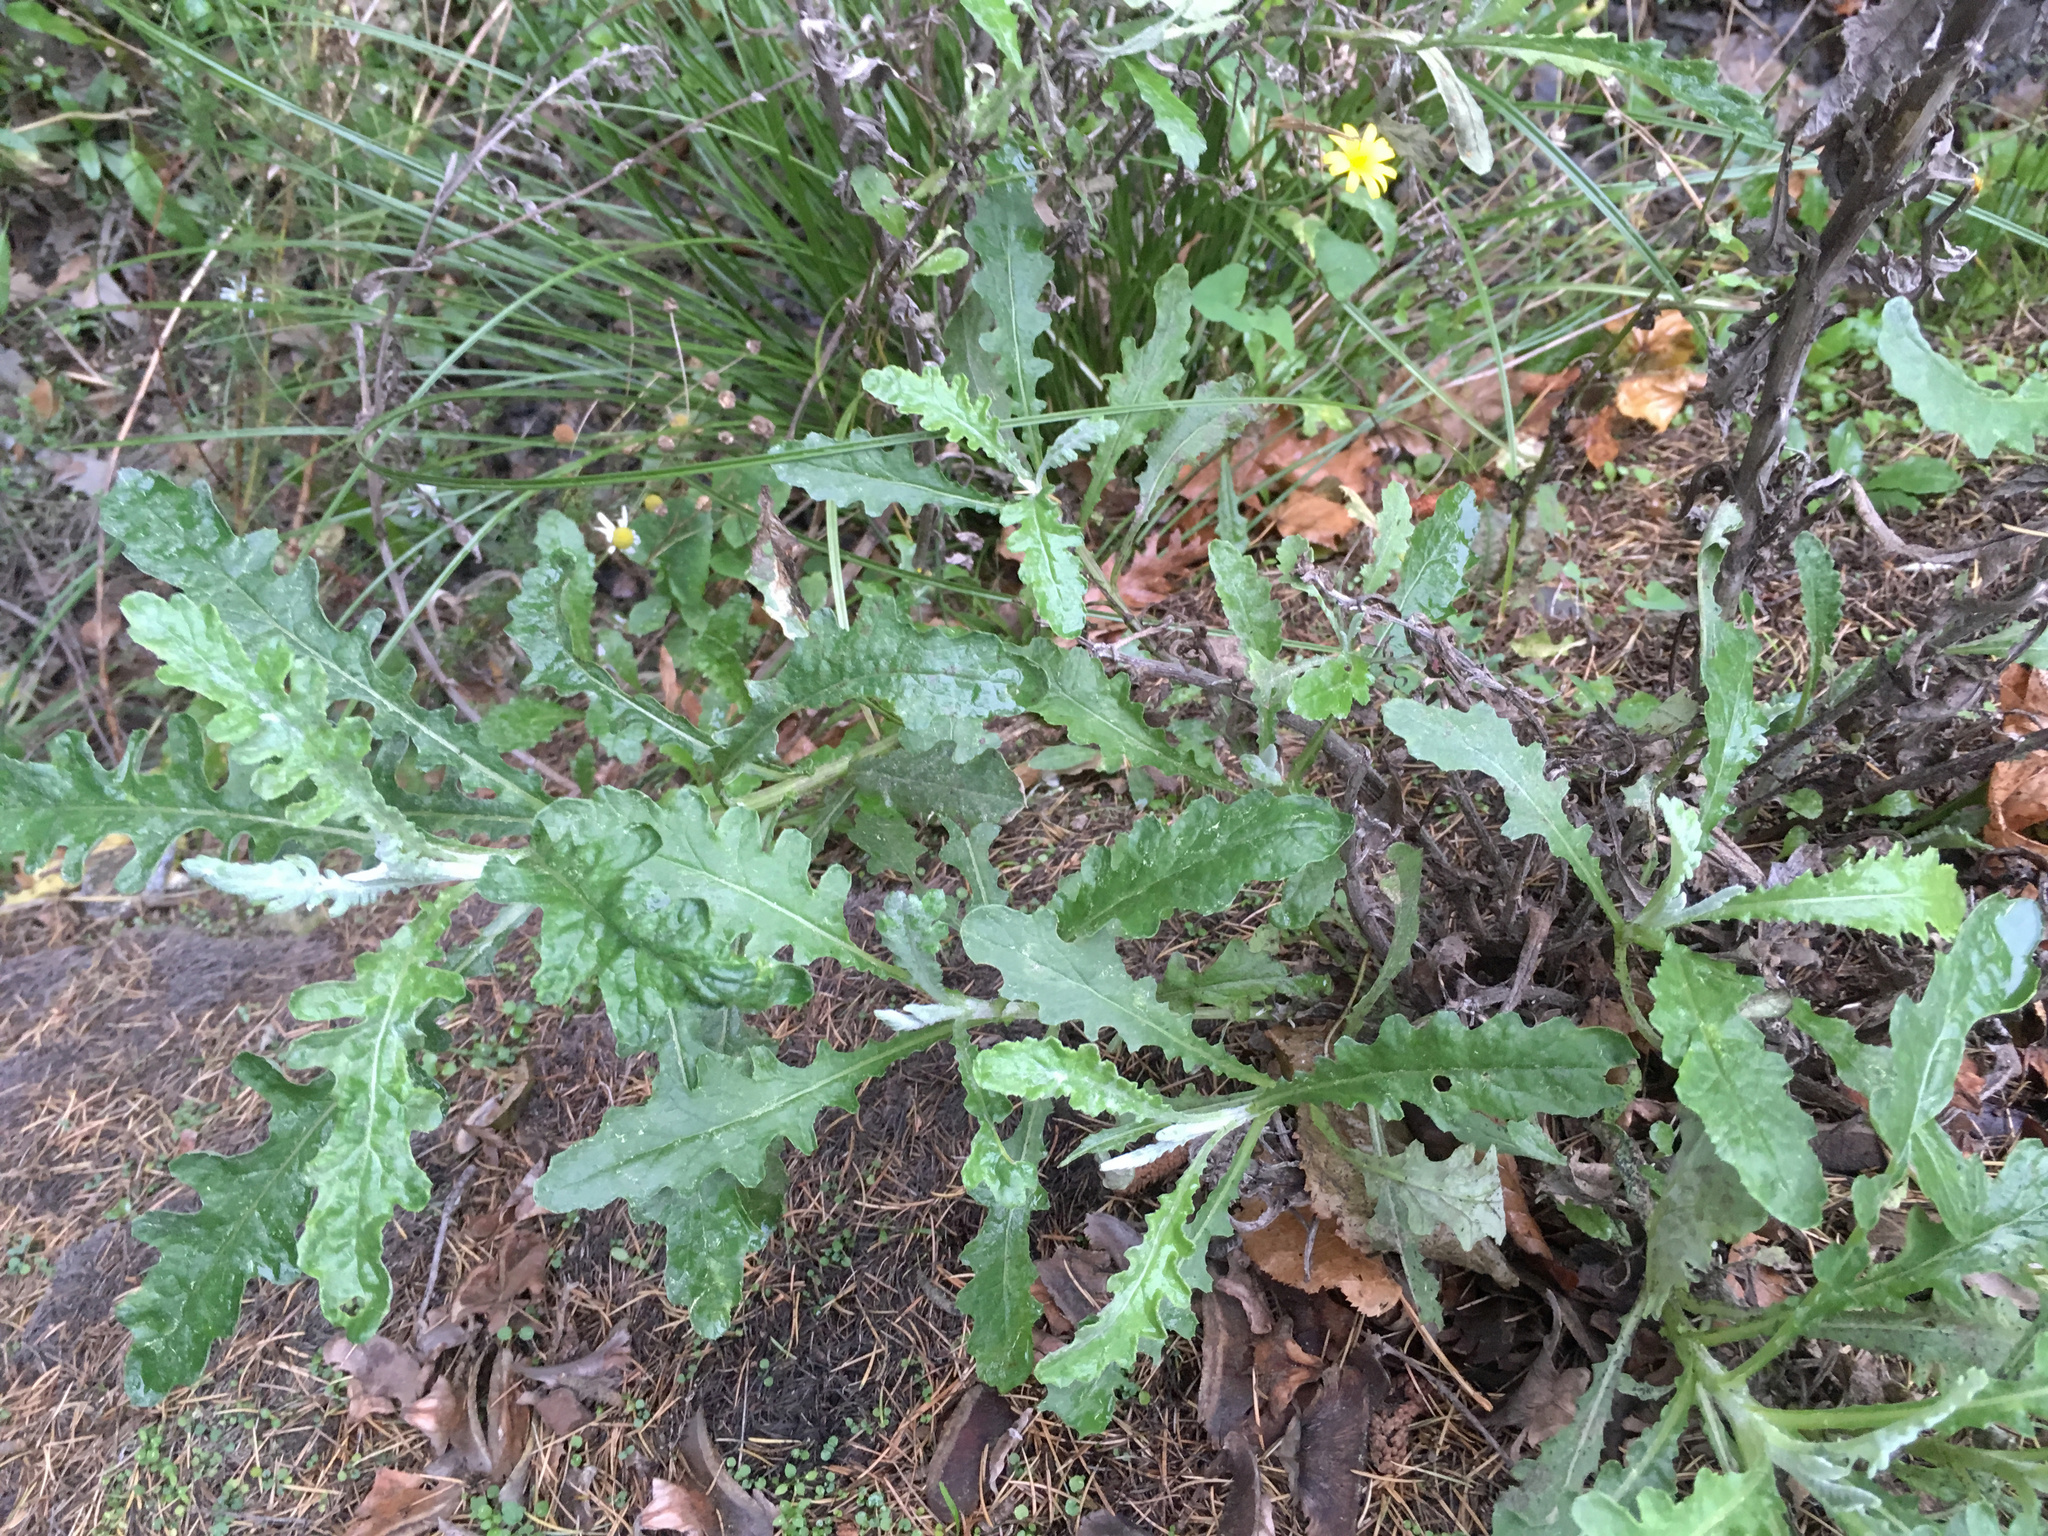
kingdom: Plantae
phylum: Tracheophyta
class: Magnoliopsida
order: Asterales
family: Asteraceae
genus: Senecio
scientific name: Senecio glomeratus
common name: Cutleaf burnweed
